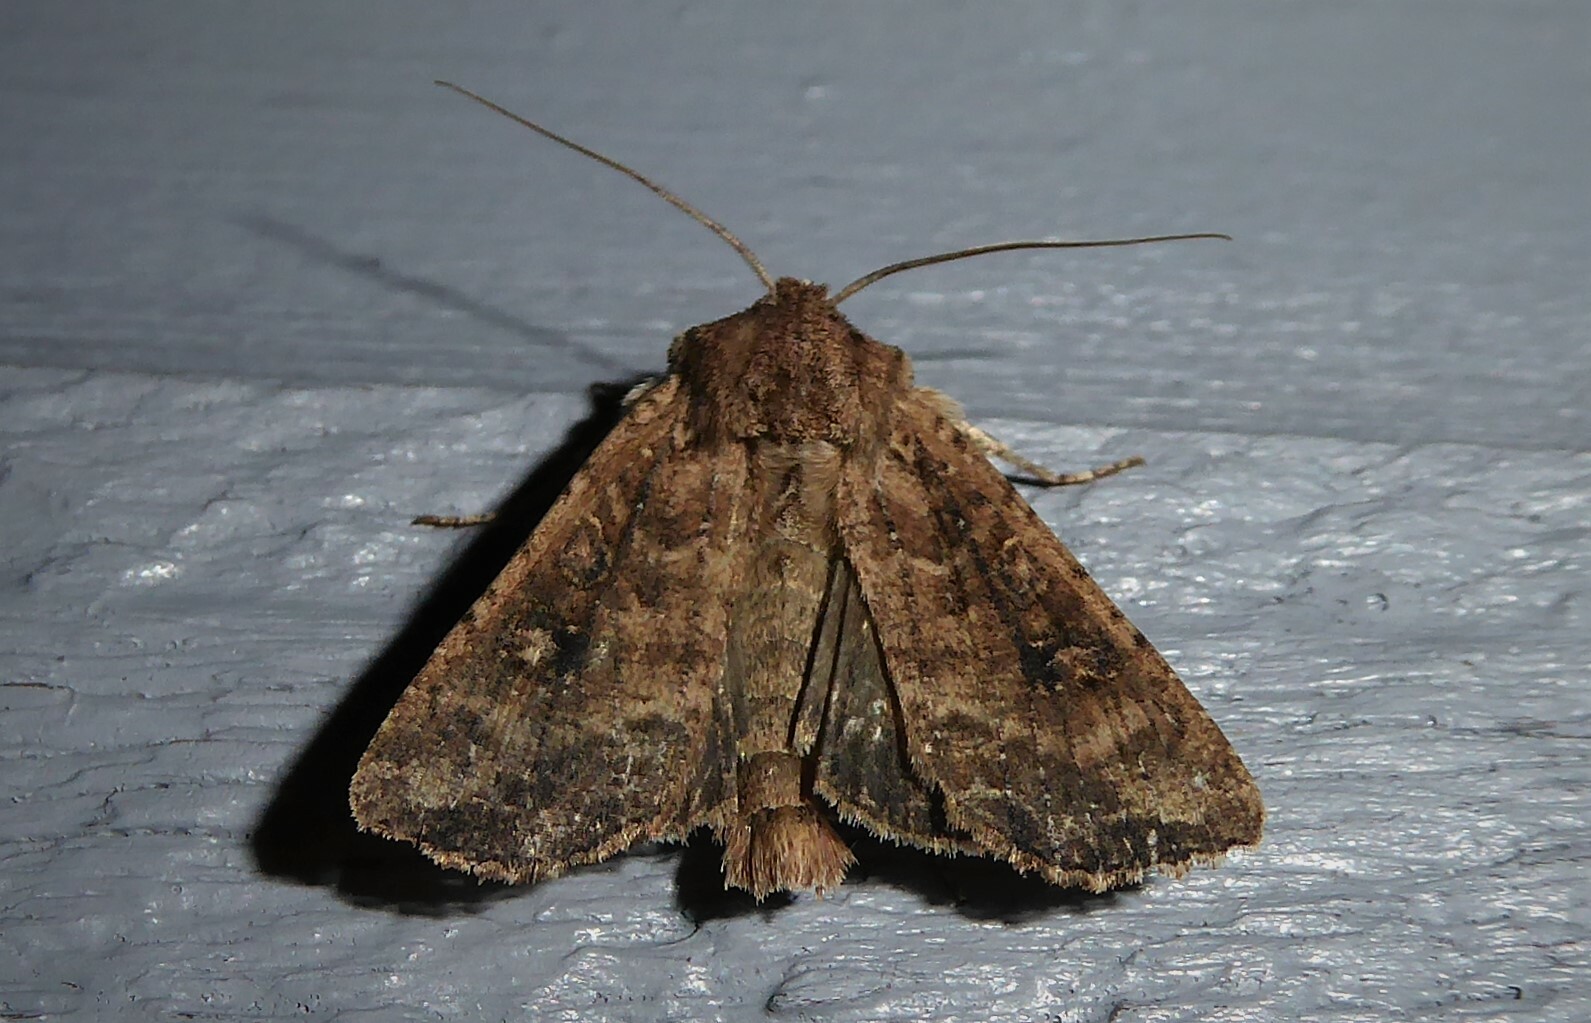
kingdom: Animalia
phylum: Arthropoda
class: Insecta
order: Lepidoptera
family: Noctuidae
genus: Ichneutica
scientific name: Ichneutica morosa
